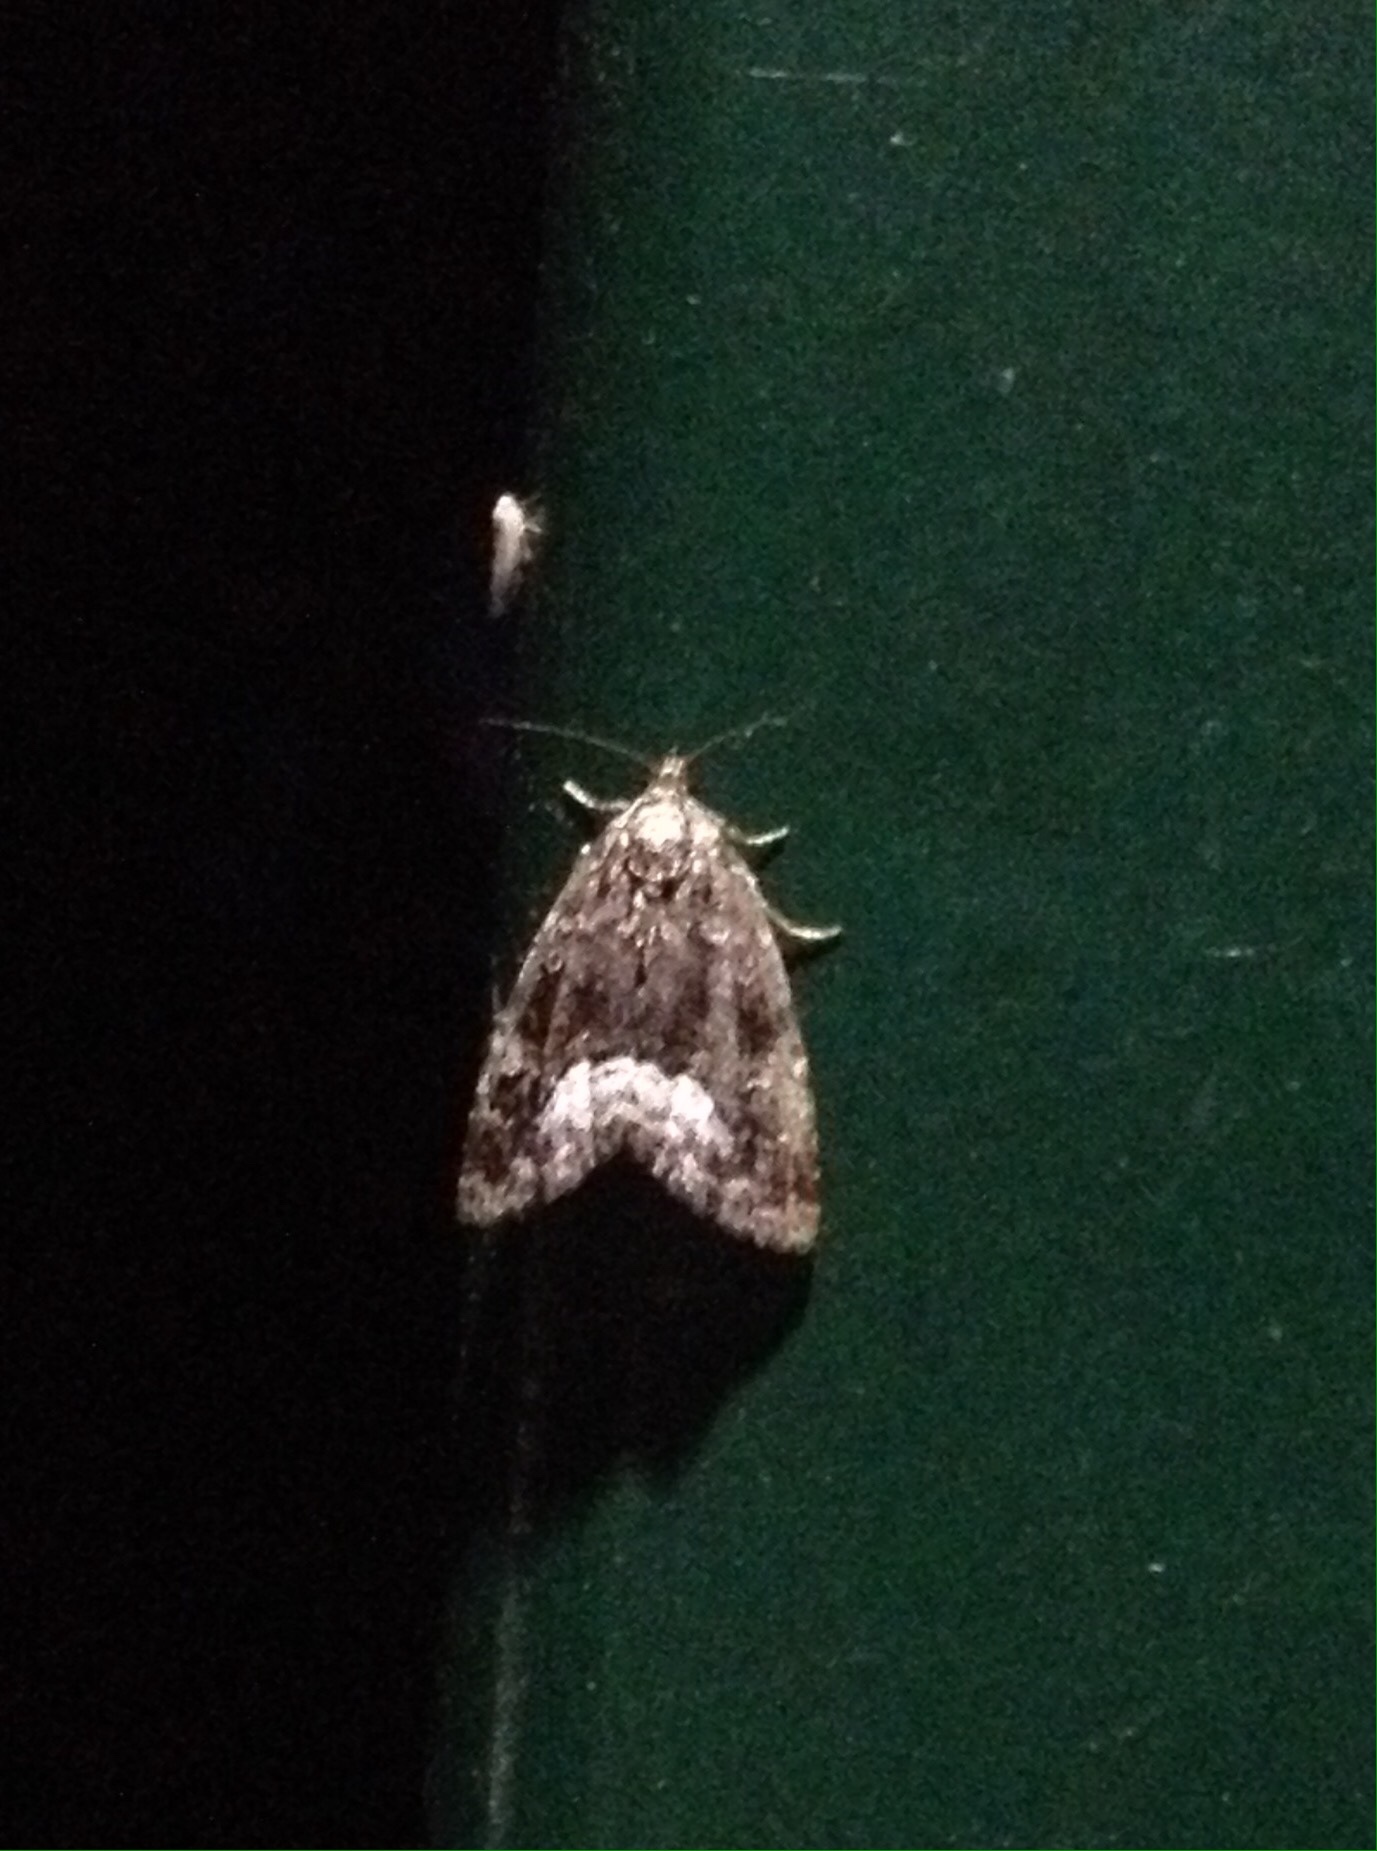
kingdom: Animalia
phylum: Arthropoda
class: Insecta
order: Lepidoptera
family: Noctuidae
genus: Deltote
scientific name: Deltote pygarga
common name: Marbled white spot
